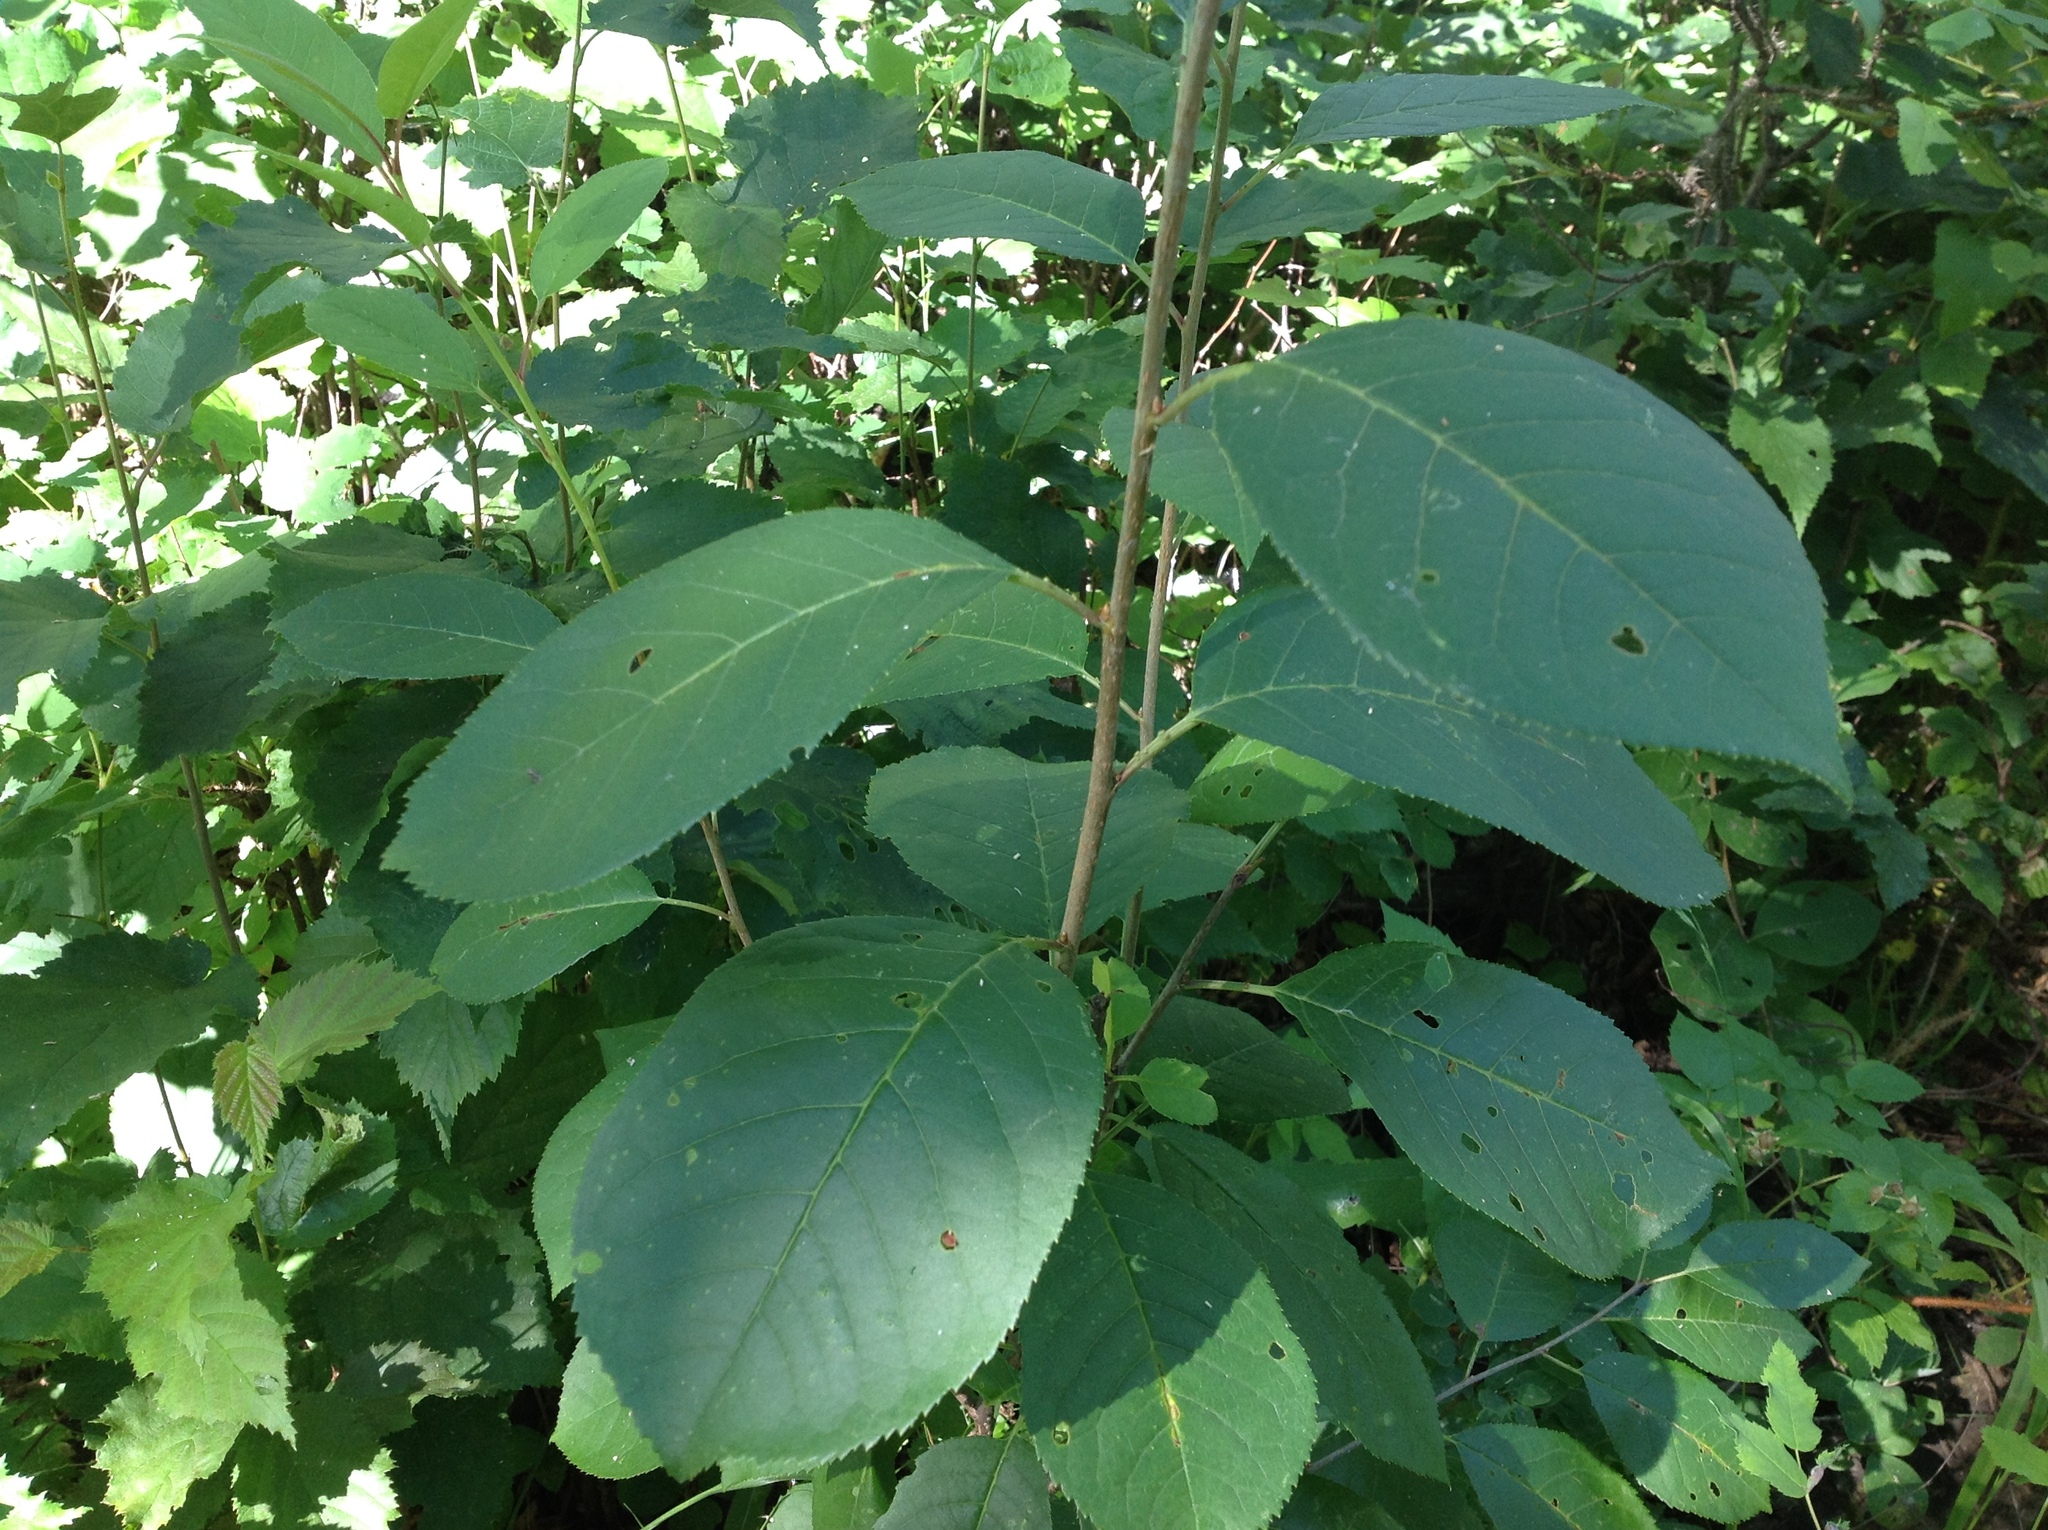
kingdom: Plantae
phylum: Tracheophyta
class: Magnoliopsida
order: Rosales
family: Rosaceae
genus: Prunus
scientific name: Prunus virginiana
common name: Chokecherry
